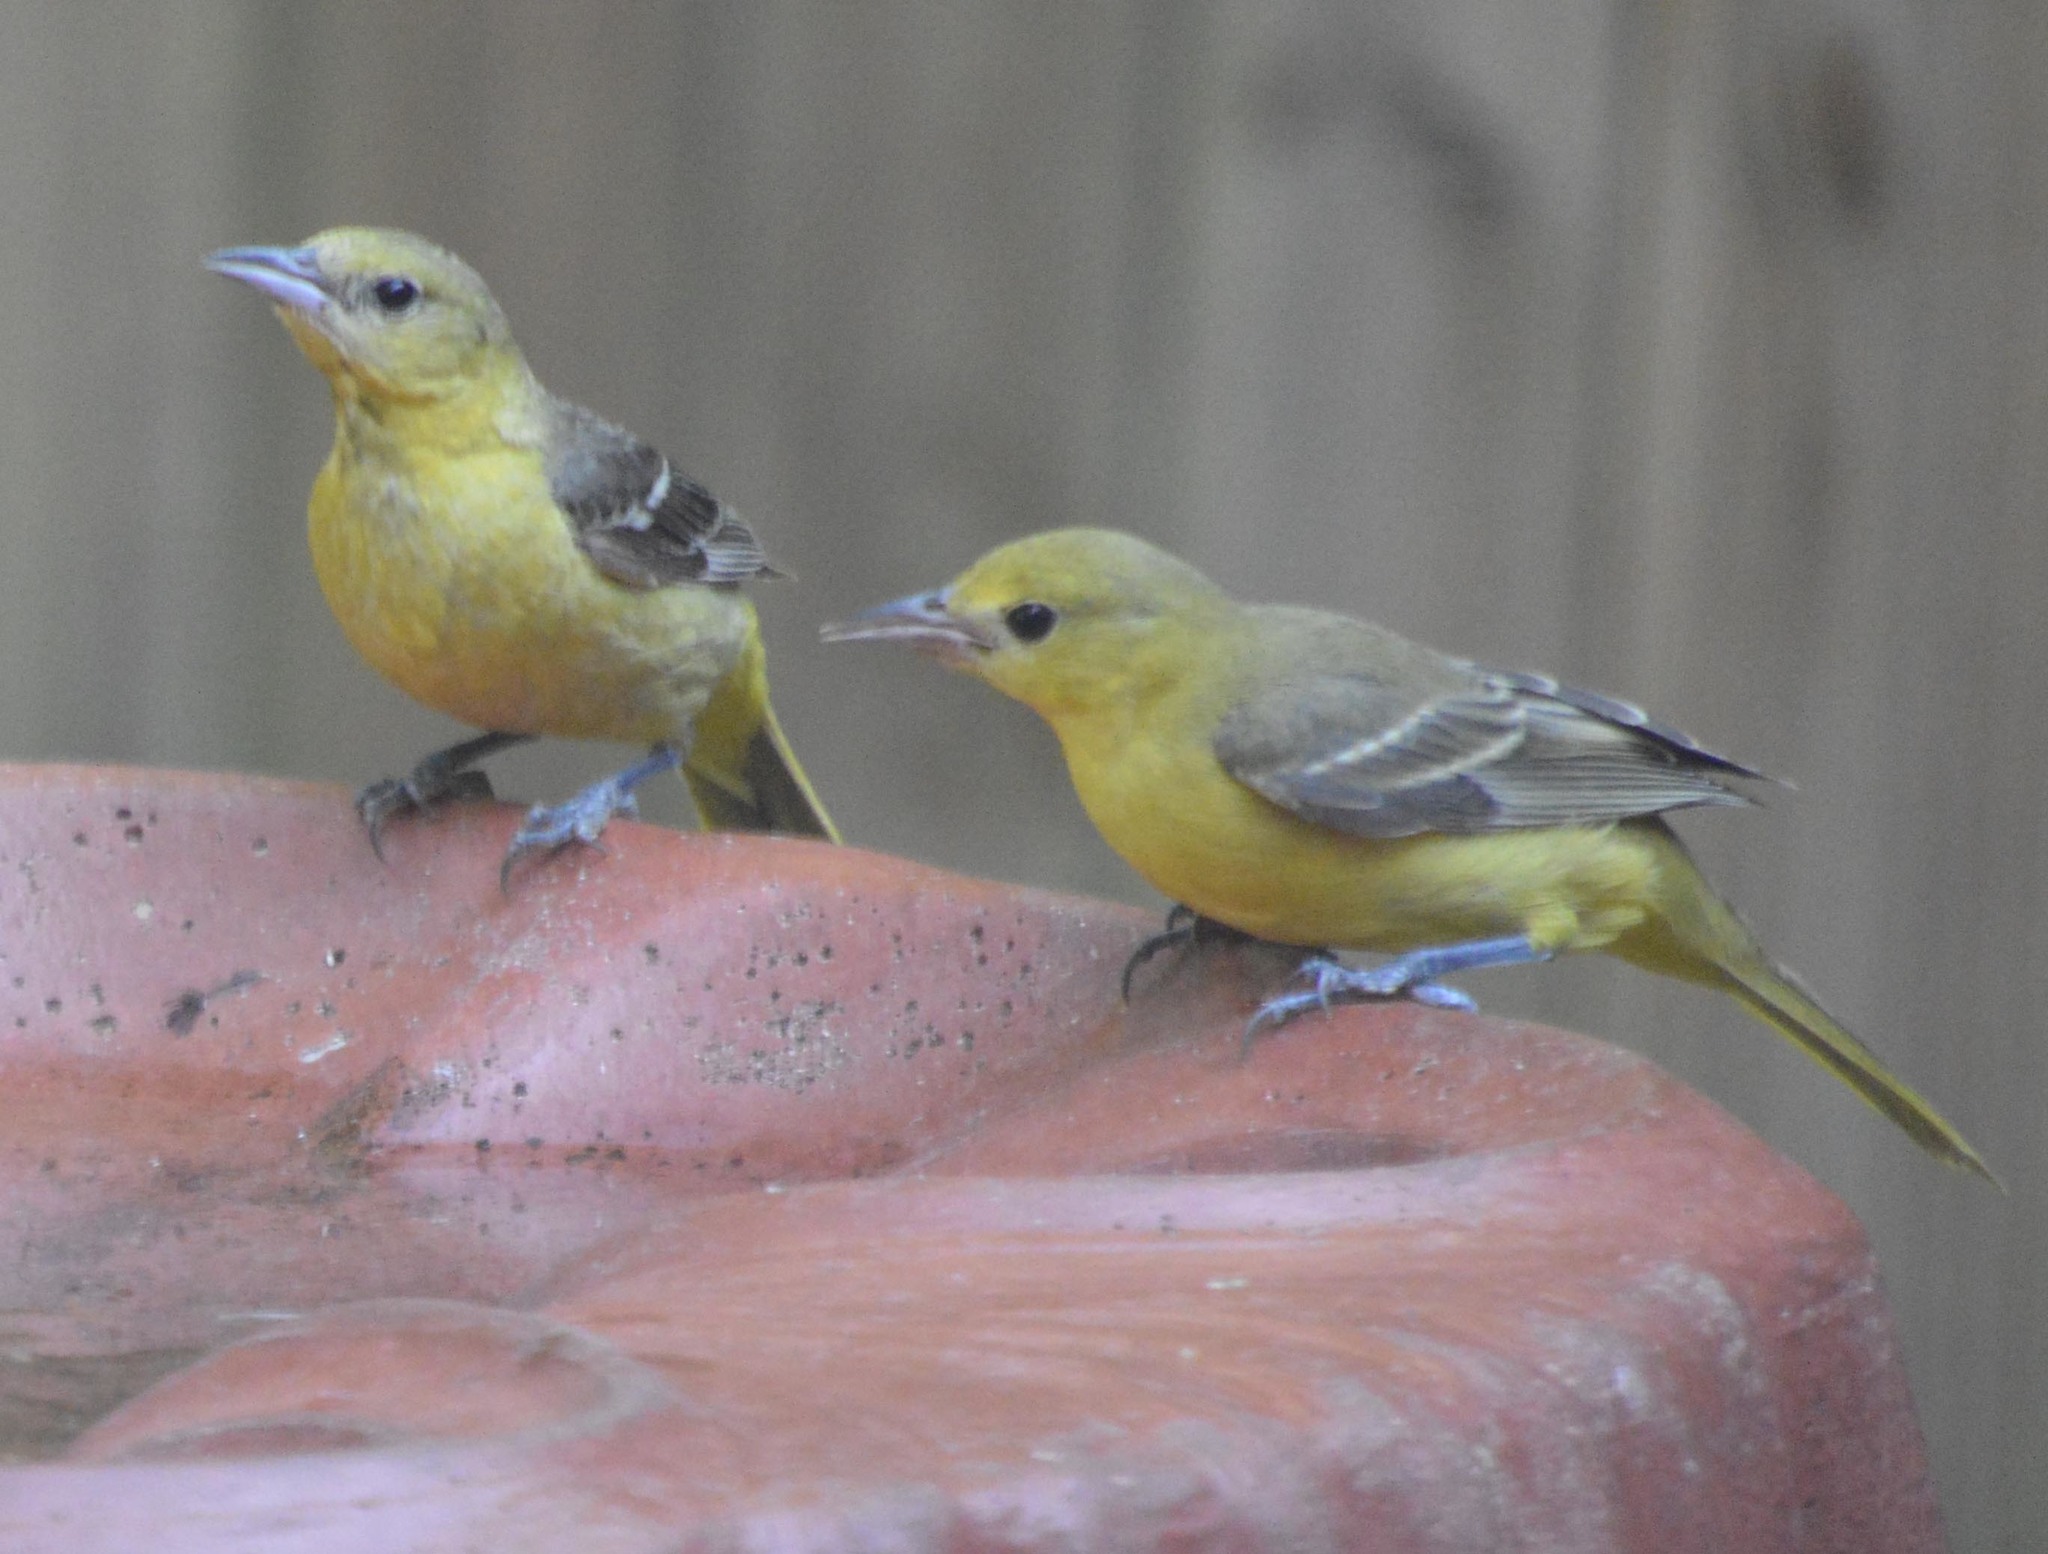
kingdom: Animalia
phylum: Chordata
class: Aves
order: Passeriformes
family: Icteridae
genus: Icterus
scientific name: Icterus spurius
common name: Orchard oriole
